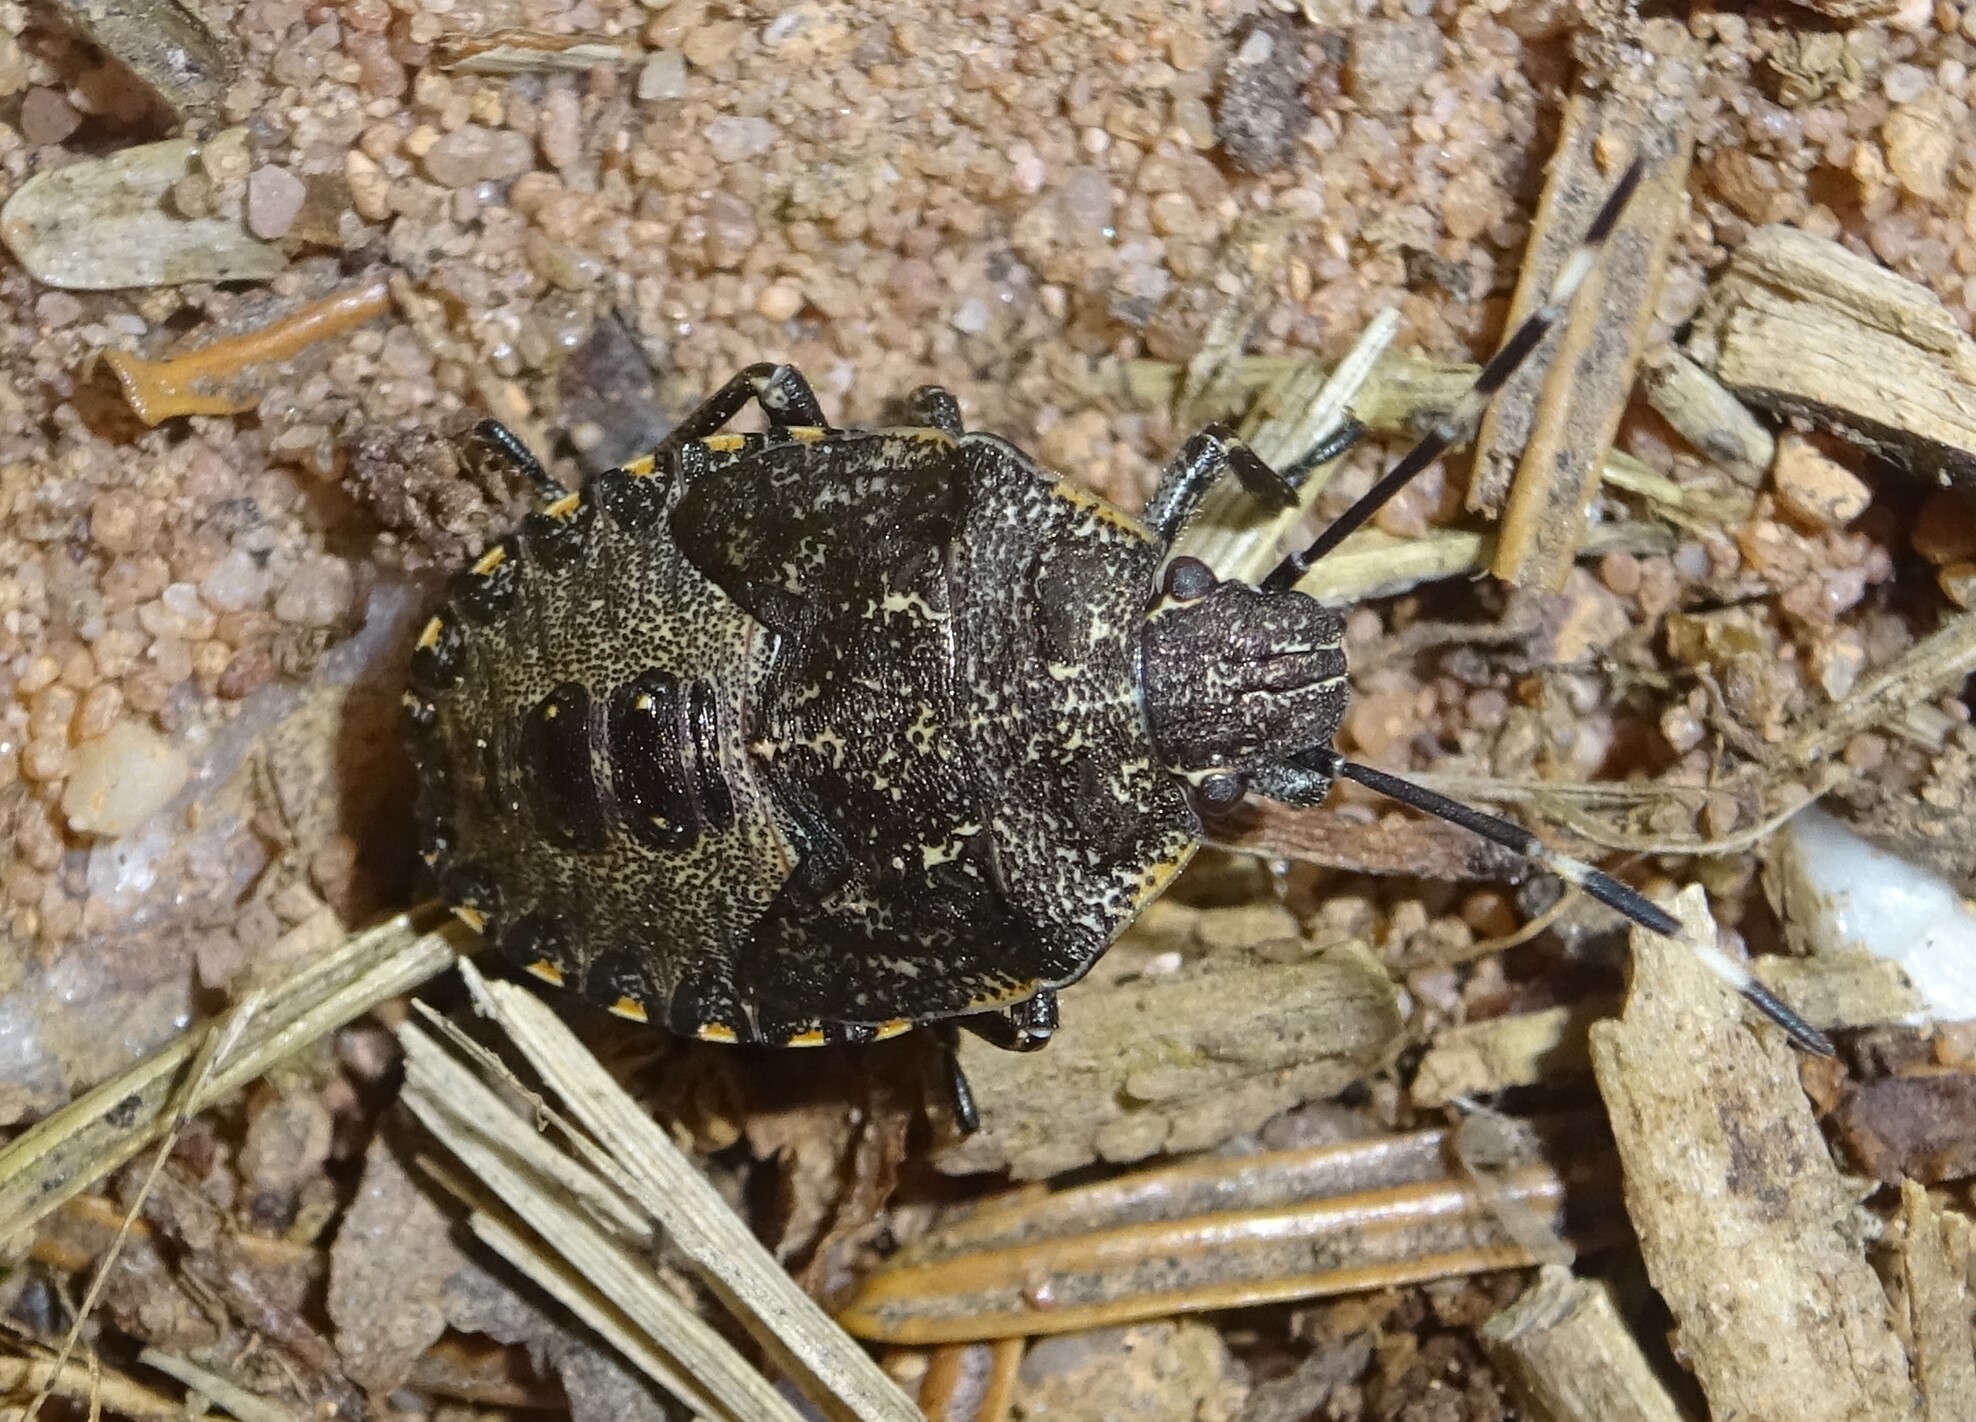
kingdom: Animalia
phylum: Arthropoda
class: Insecta
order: Hemiptera
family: Pentatomidae
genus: Rhaphigaster
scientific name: Rhaphigaster nebulosa
